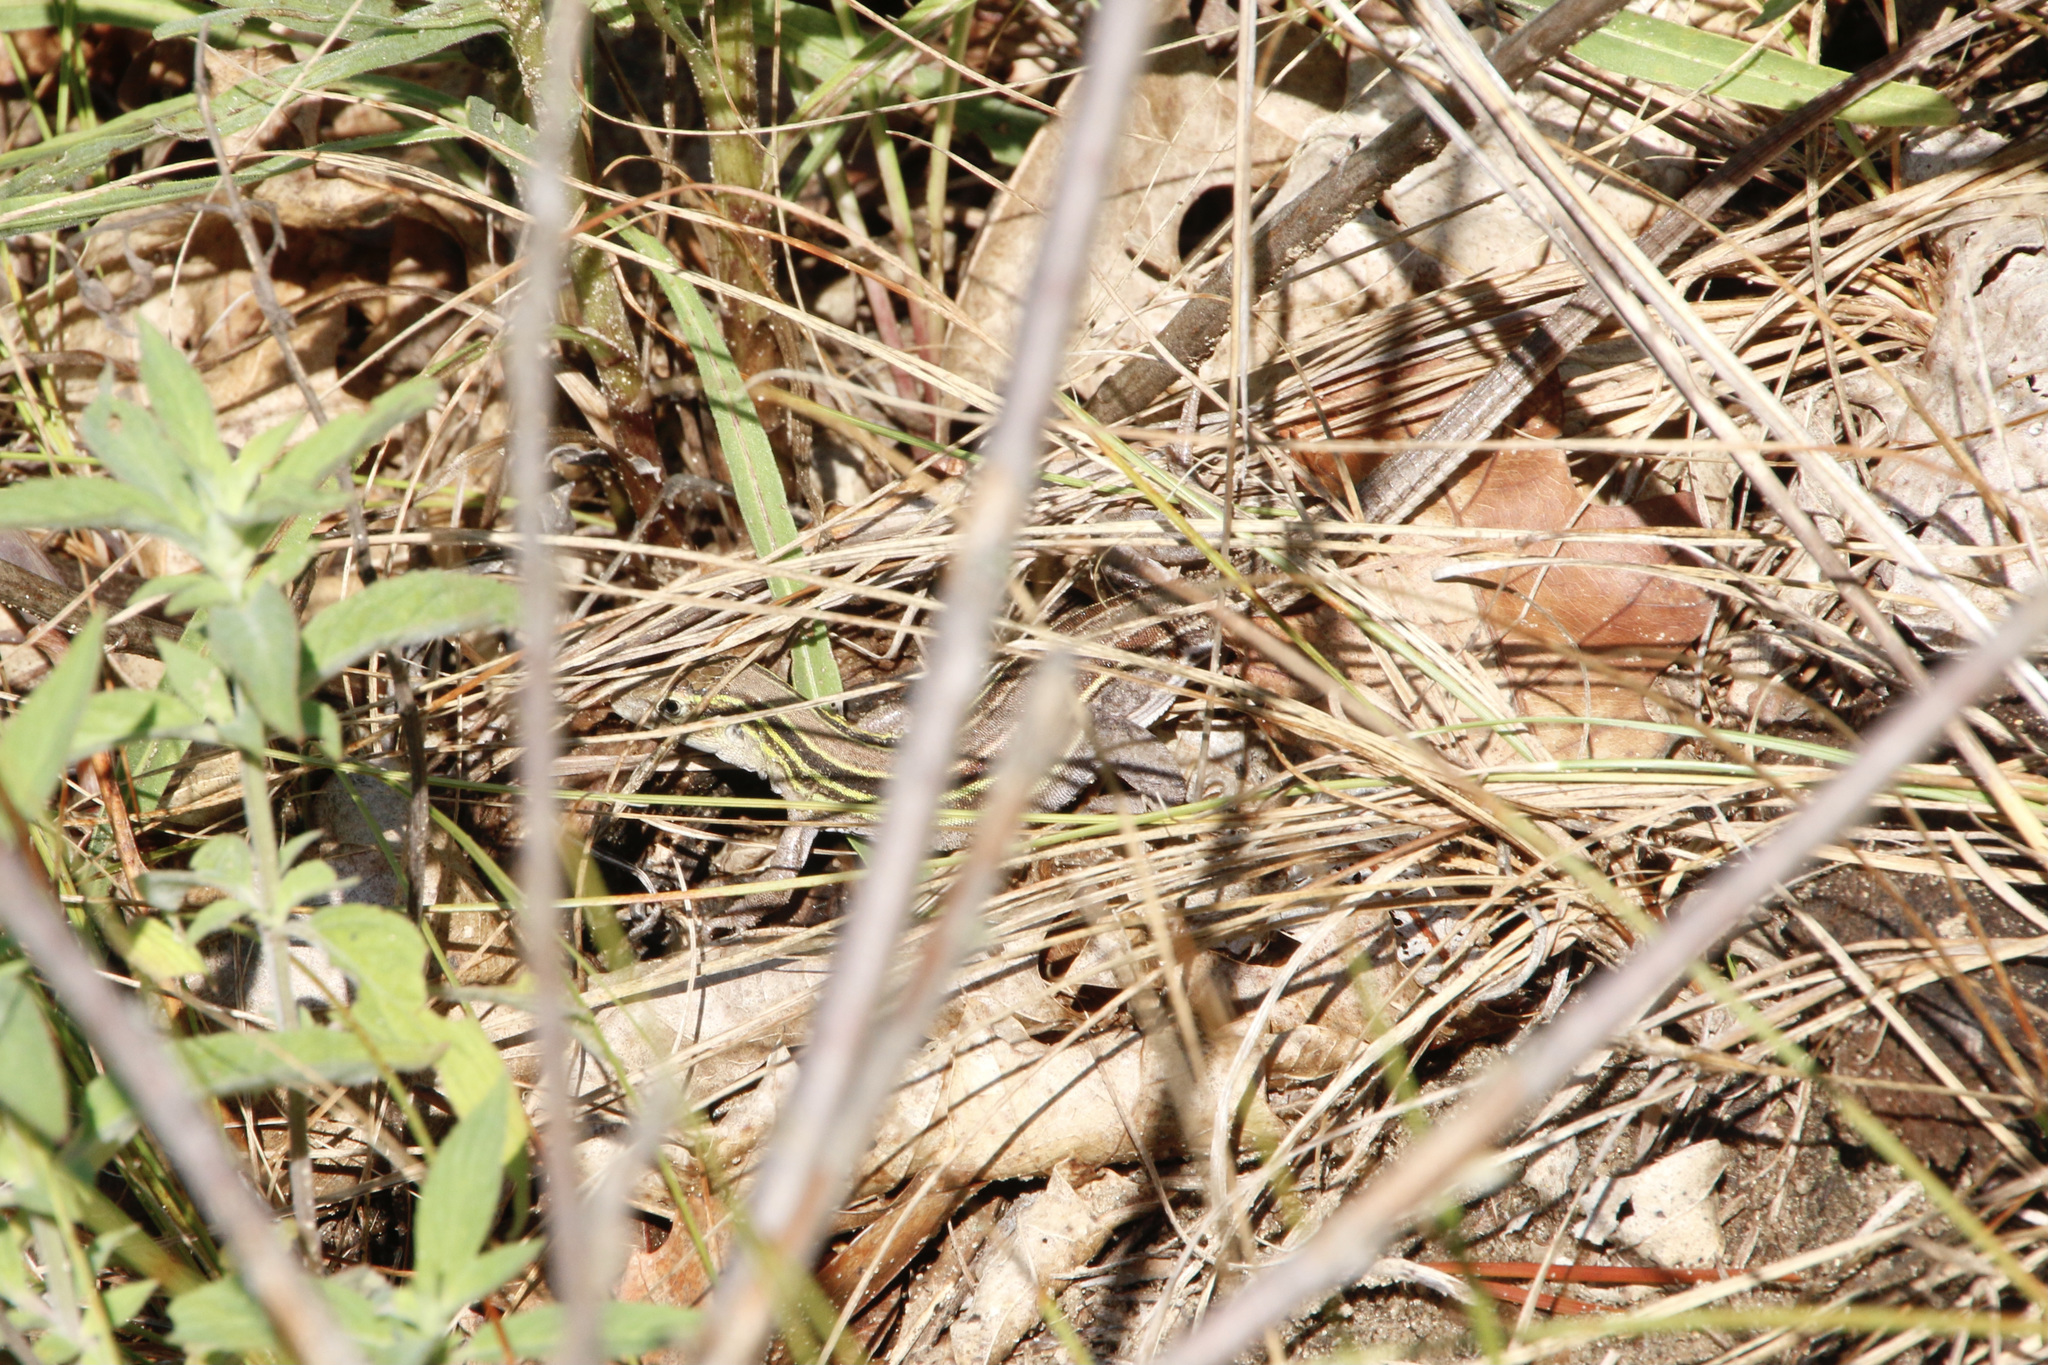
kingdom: Animalia
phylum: Chordata
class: Squamata
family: Teiidae
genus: Aspidoscelis
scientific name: Aspidoscelis sexlineatus
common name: Six-lined racerunner
